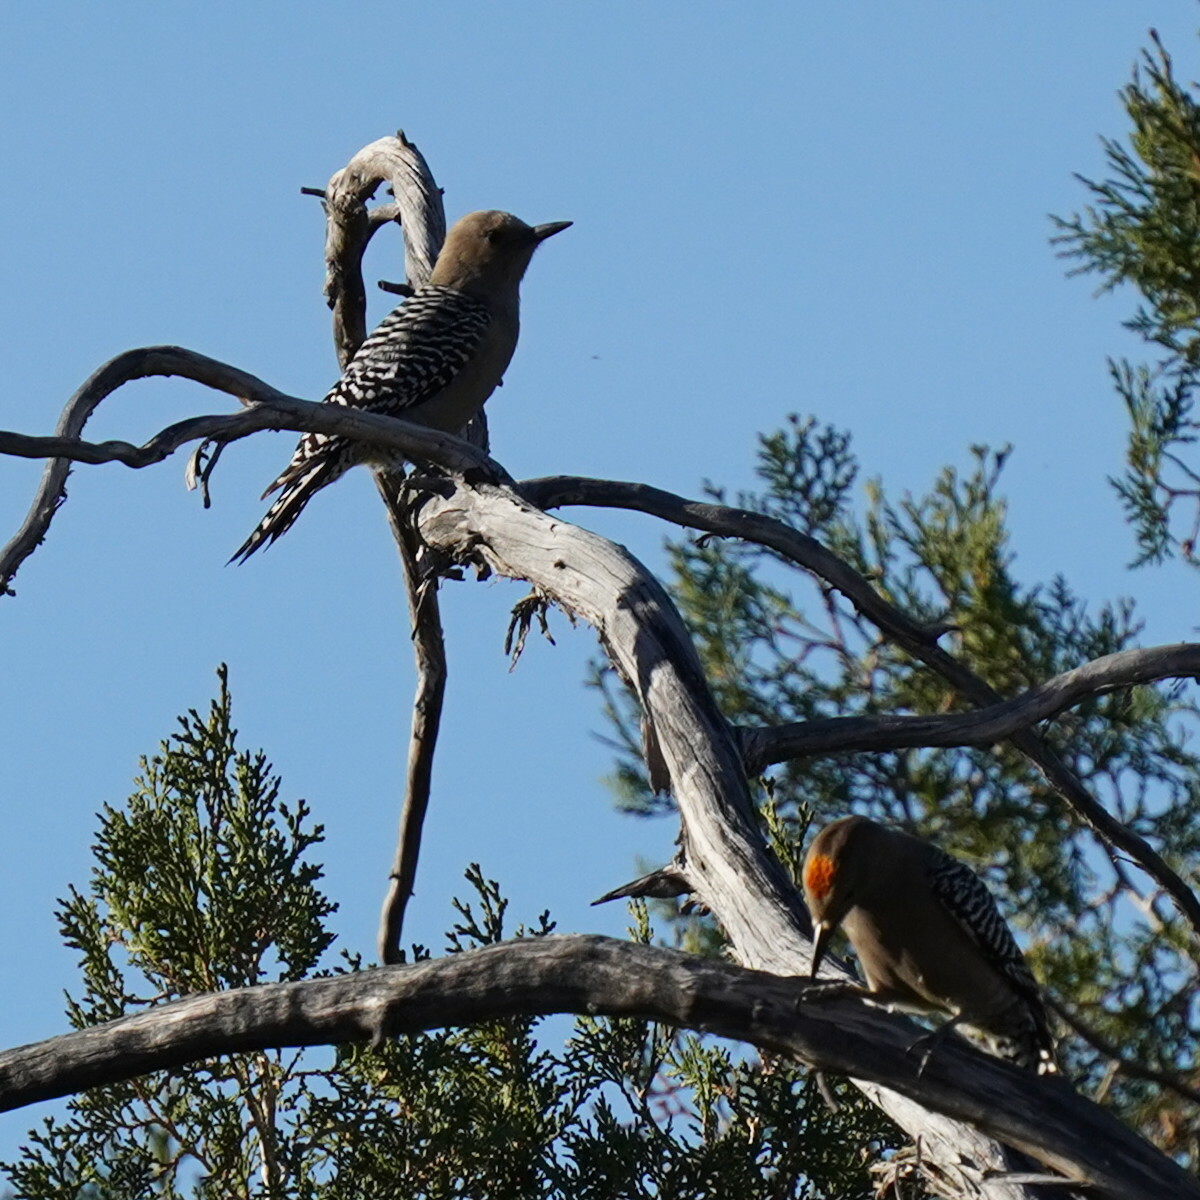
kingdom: Animalia
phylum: Chordata
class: Aves
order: Piciformes
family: Picidae
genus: Melanerpes
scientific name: Melanerpes uropygialis
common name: Gila woodpecker
